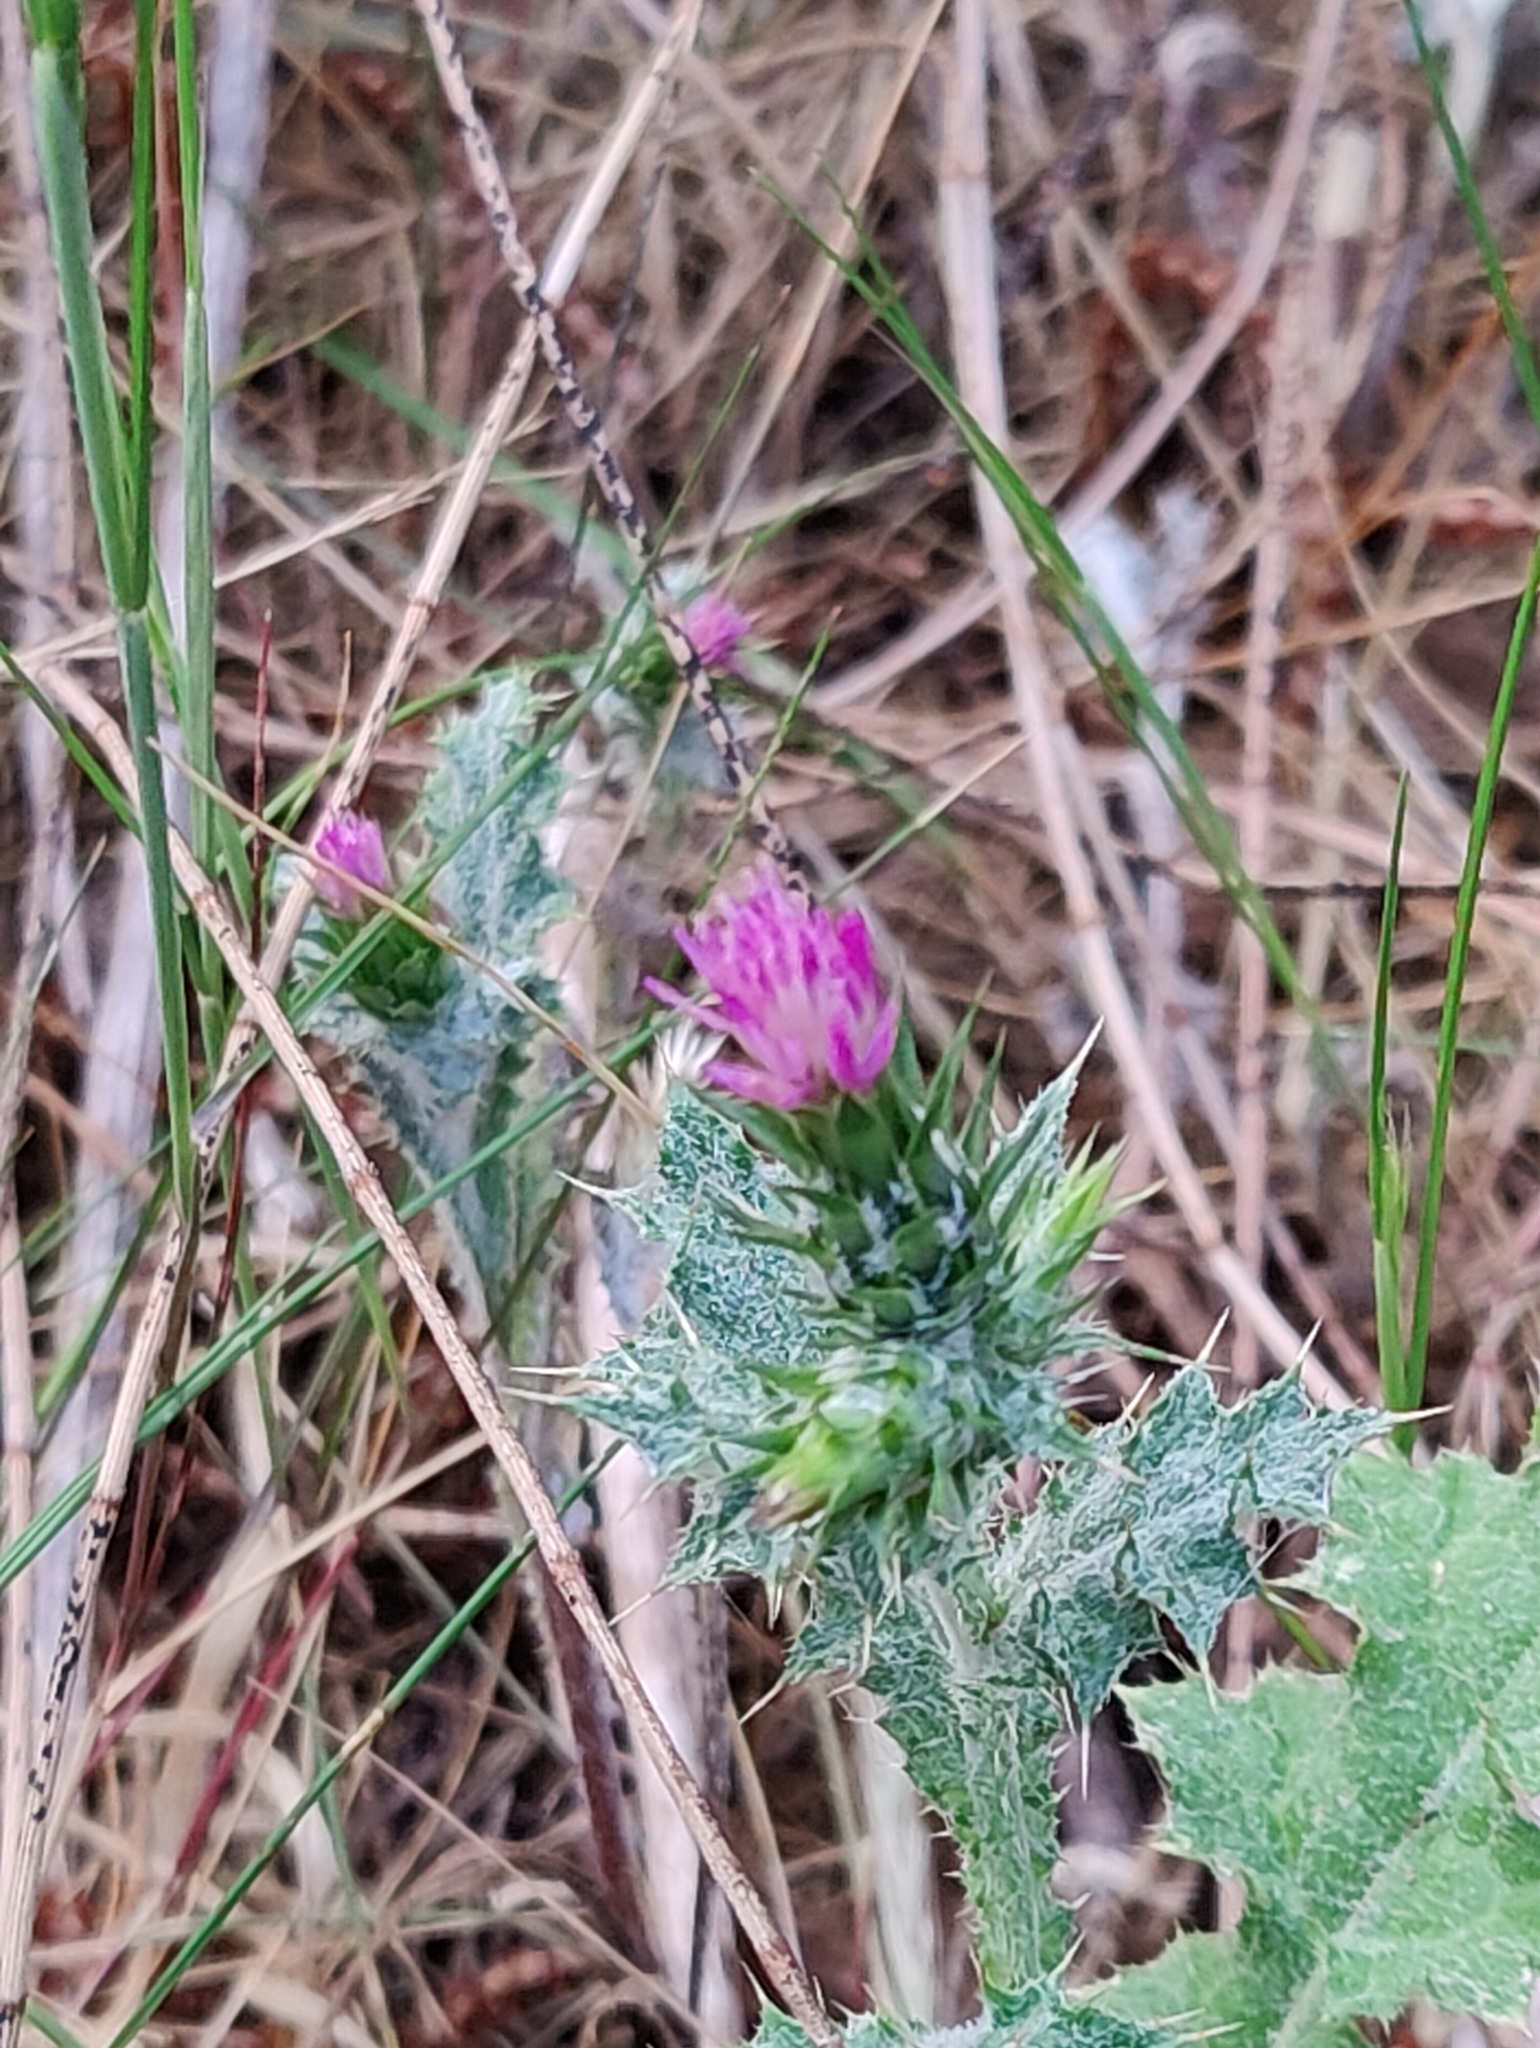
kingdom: Plantae
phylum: Tracheophyta
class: Magnoliopsida
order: Asterales
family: Asteraceae
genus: Carduus
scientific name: Carduus pycnocephalus
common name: Plymouth thistle
